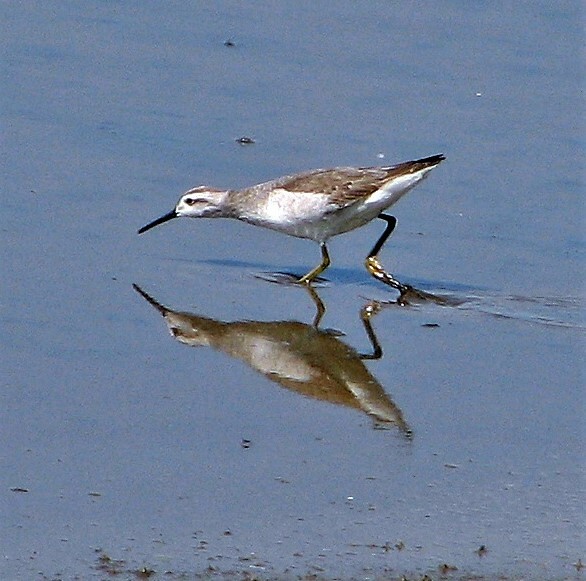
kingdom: Animalia
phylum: Chordata
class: Aves
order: Charadriiformes
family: Scolopacidae
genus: Phalaropus
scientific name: Phalaropus tricolor
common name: Wilson's phalarope
